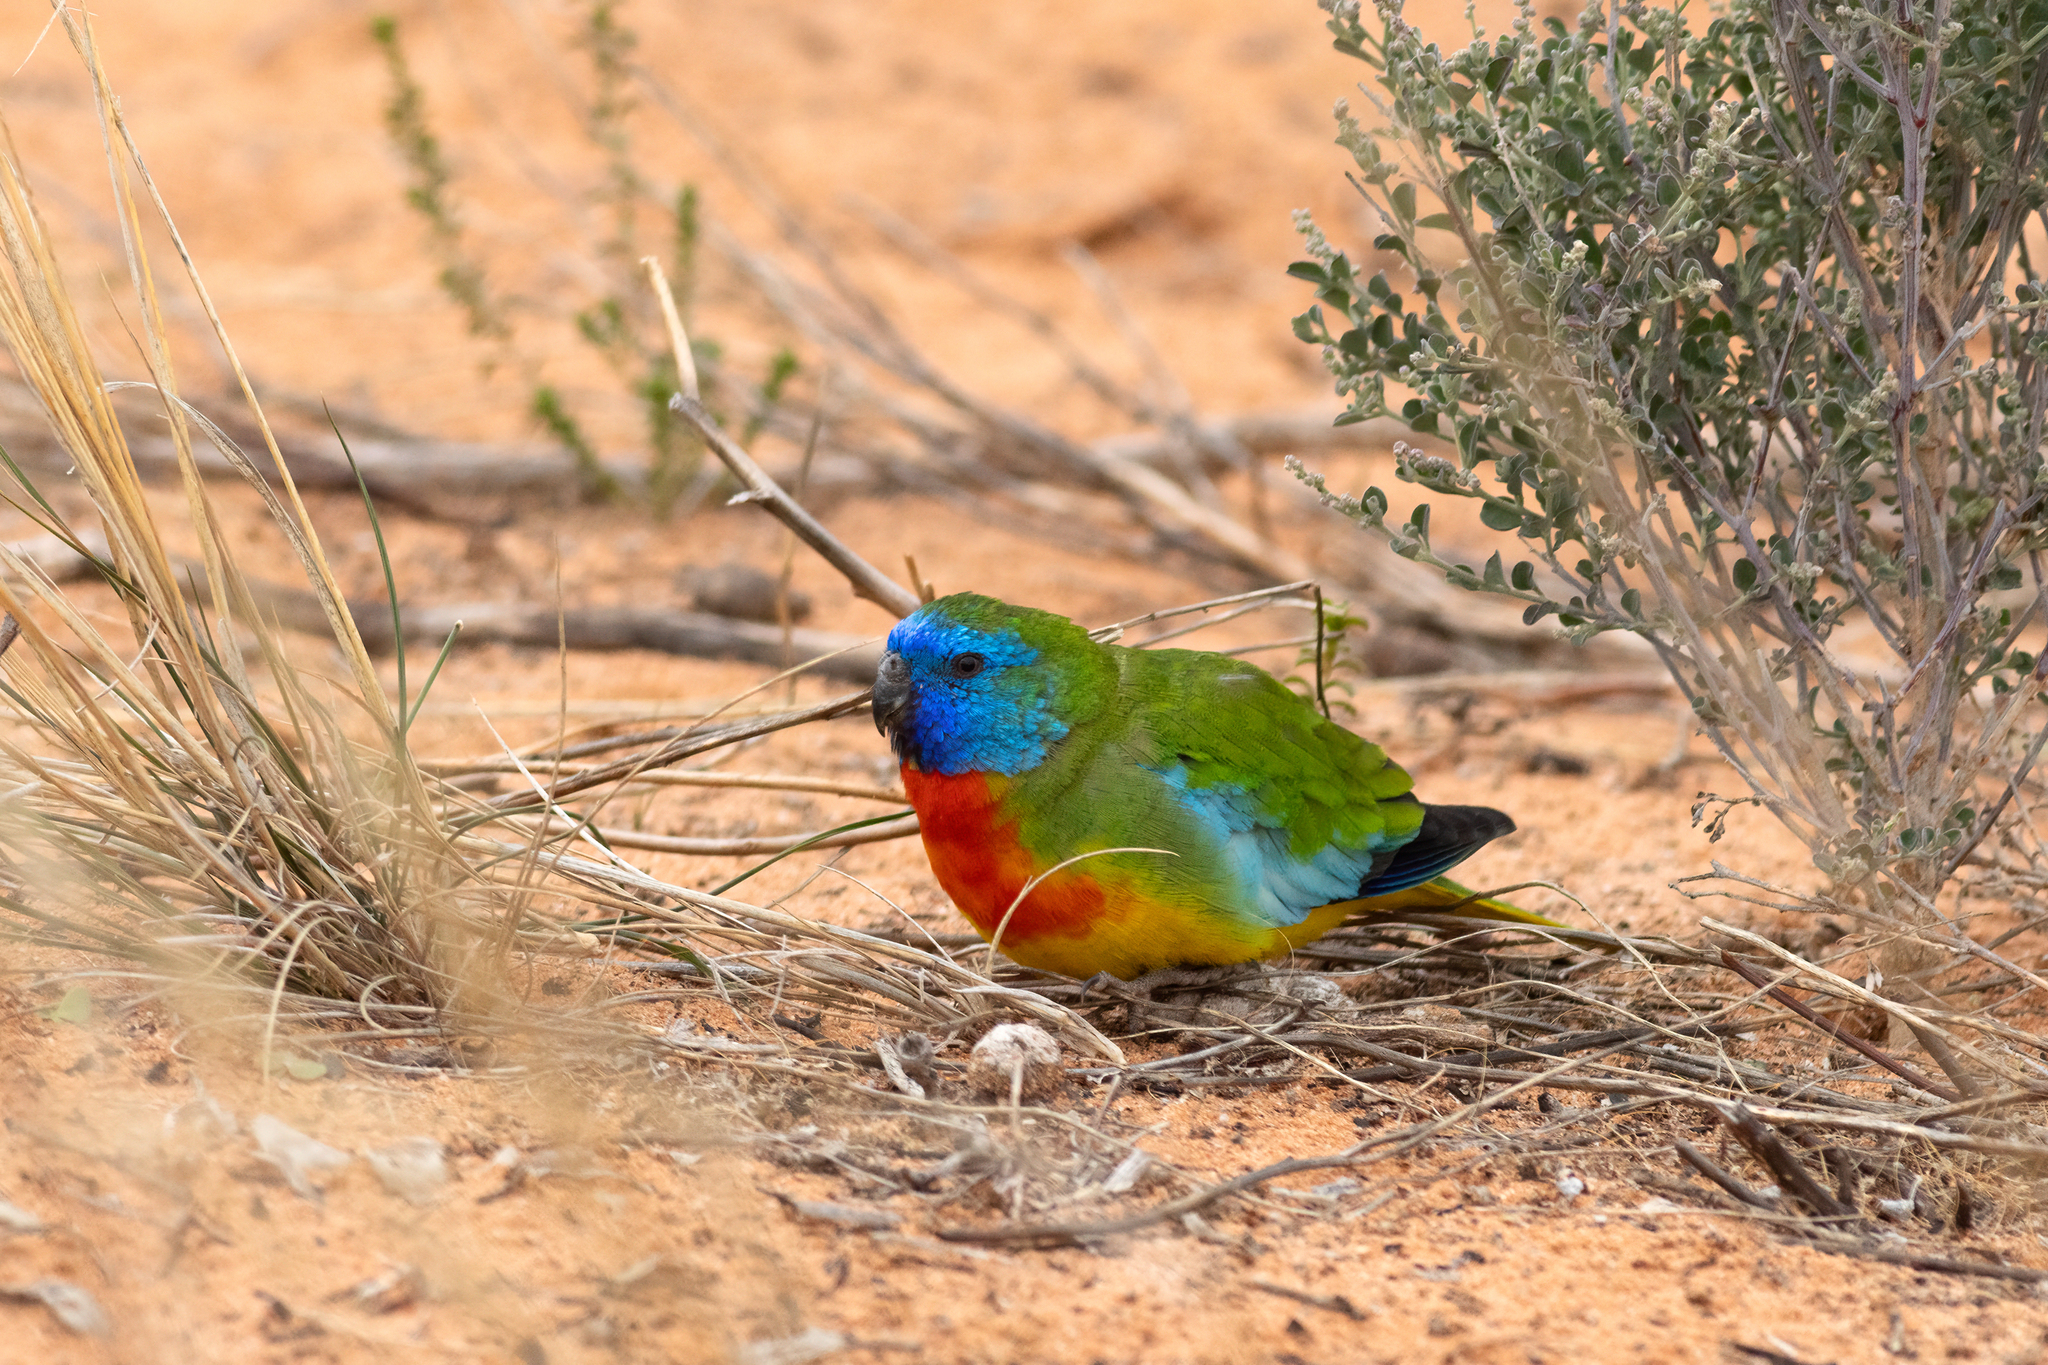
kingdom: Animalia
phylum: Chordata
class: Aves
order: Psittaciformes
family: Psittacidae
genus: Neophema
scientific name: Neophema splendida
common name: Scarlet-chested parrot
